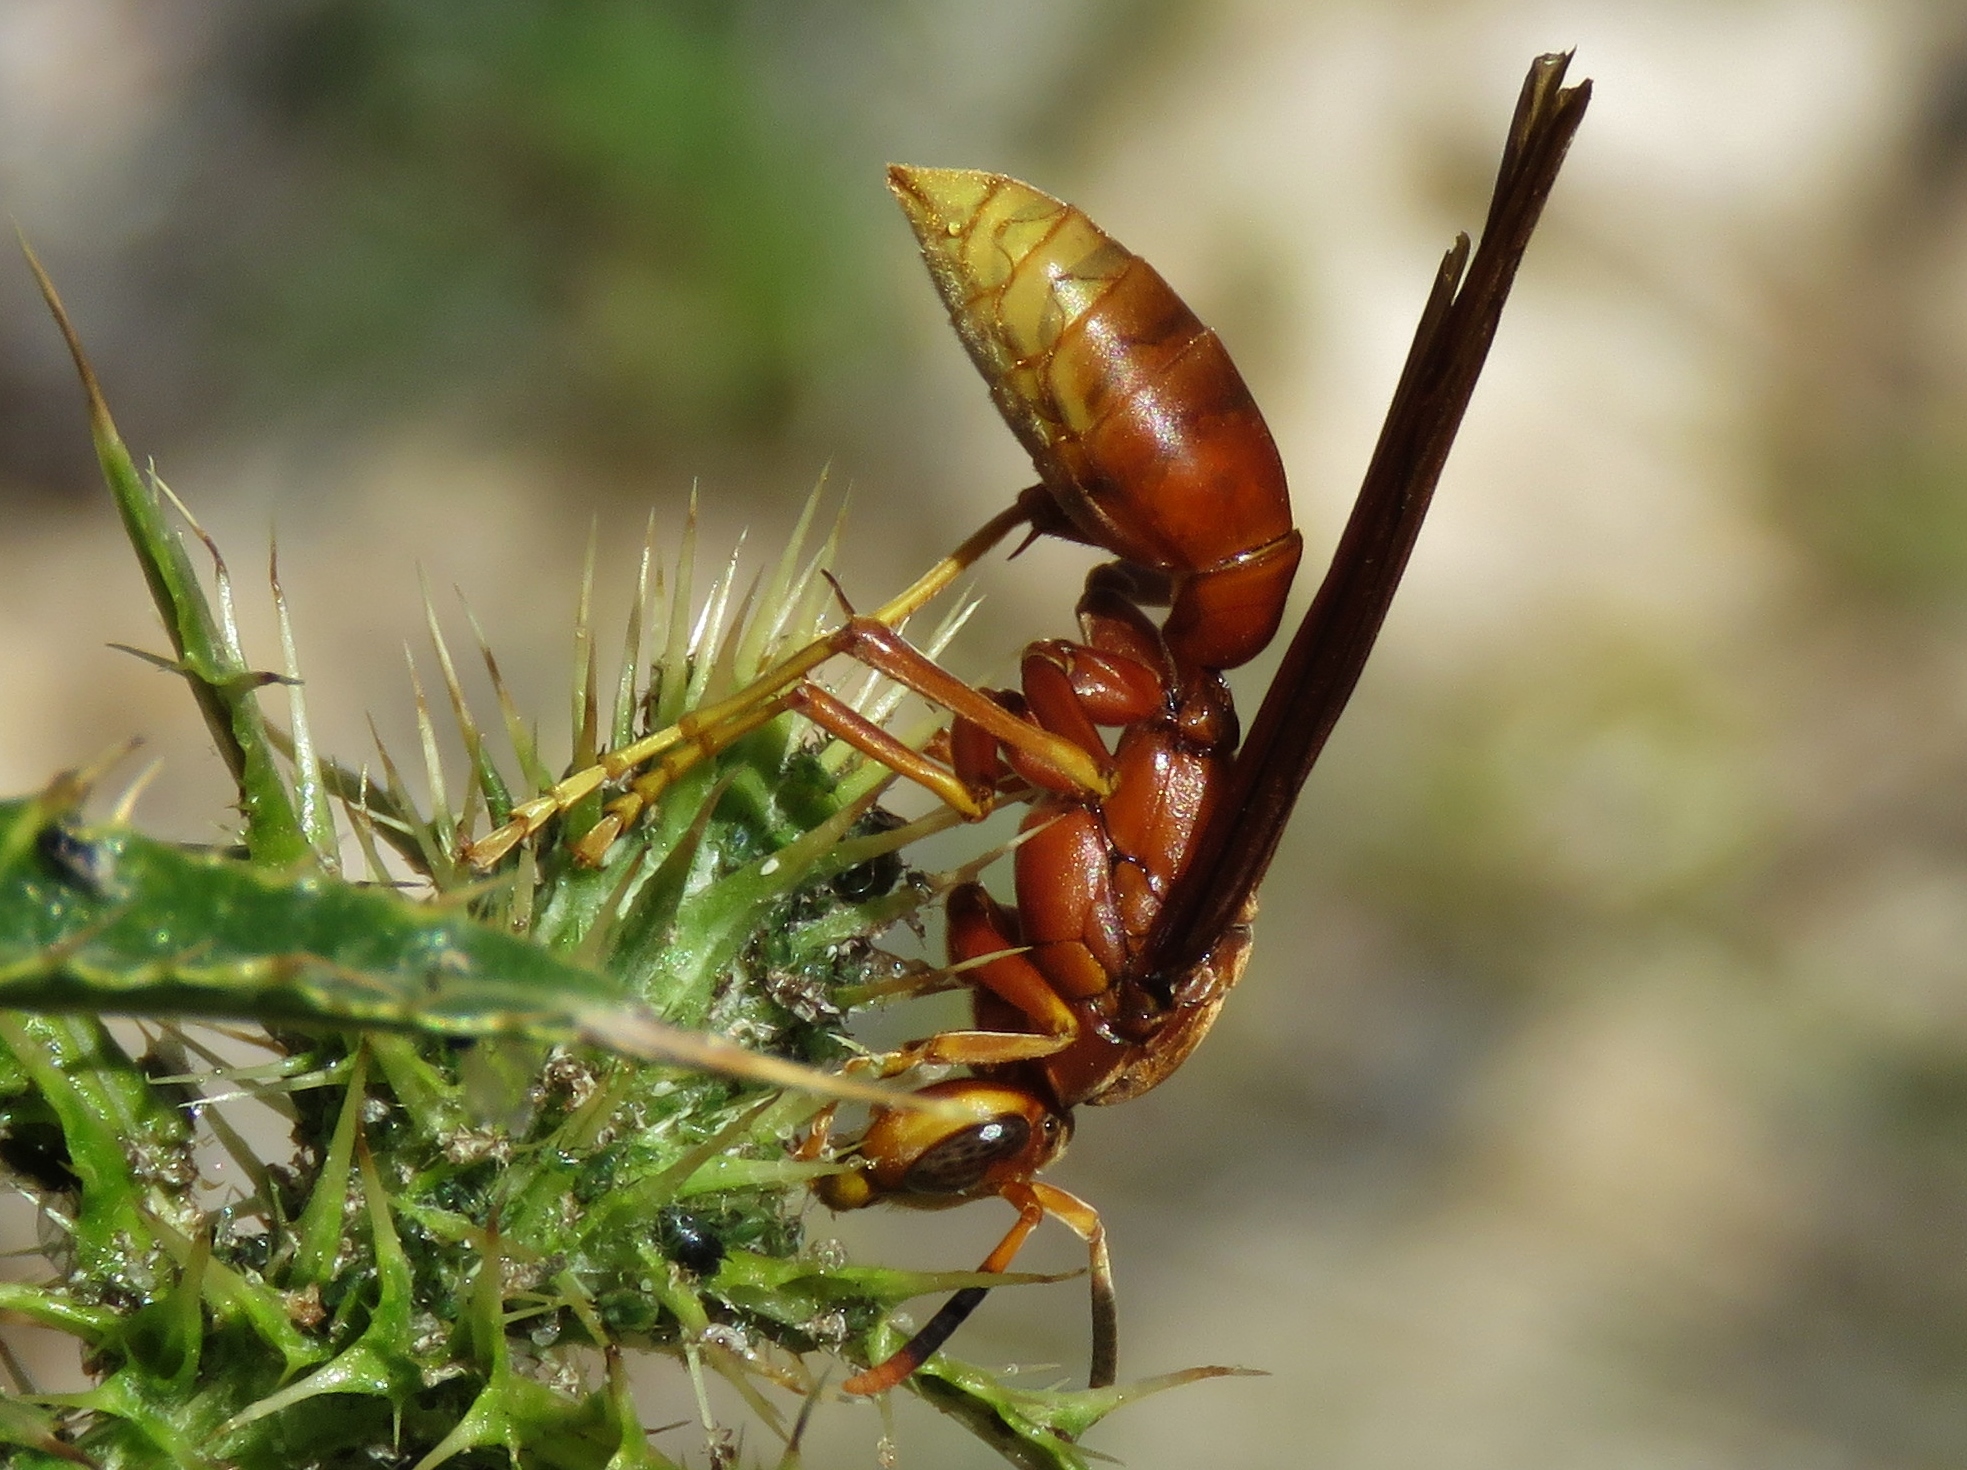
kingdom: Animalia
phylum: Arthropoda
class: Insecta
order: Hymenoptera
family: Eumenidae
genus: Polistes
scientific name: Polistes kaibabensis
